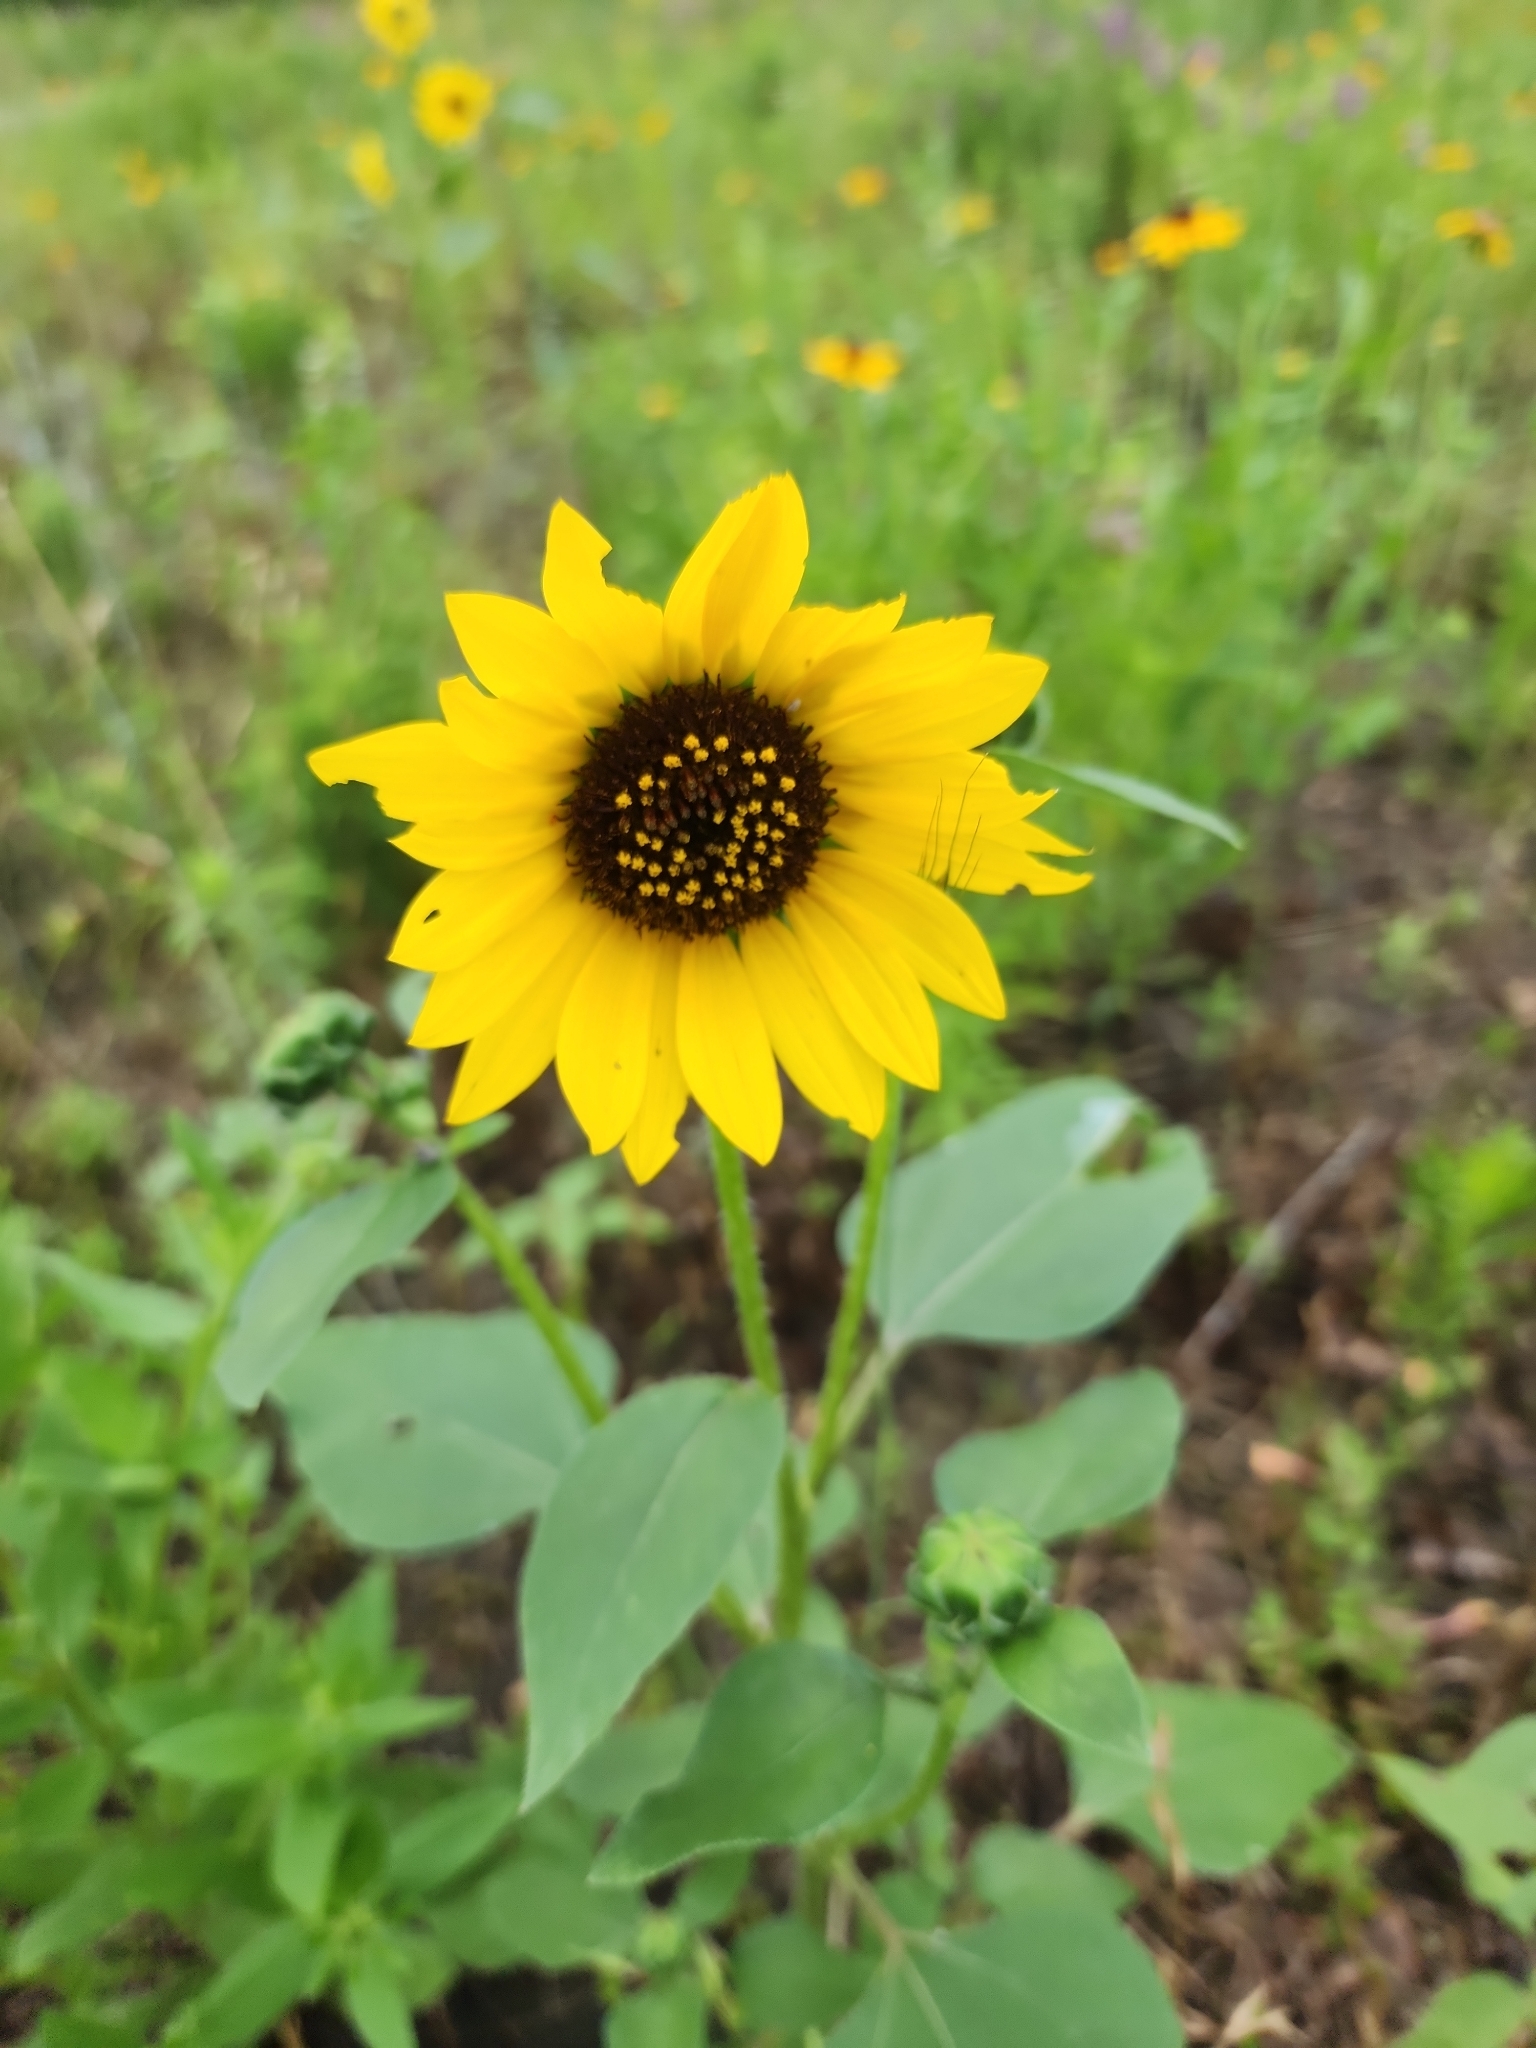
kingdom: Plantae
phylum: Tracheophyta
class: Magnoliopsida
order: Asterales
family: Asteraceae
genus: Helianthus
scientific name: Helianthus annuus
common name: Sunflower
